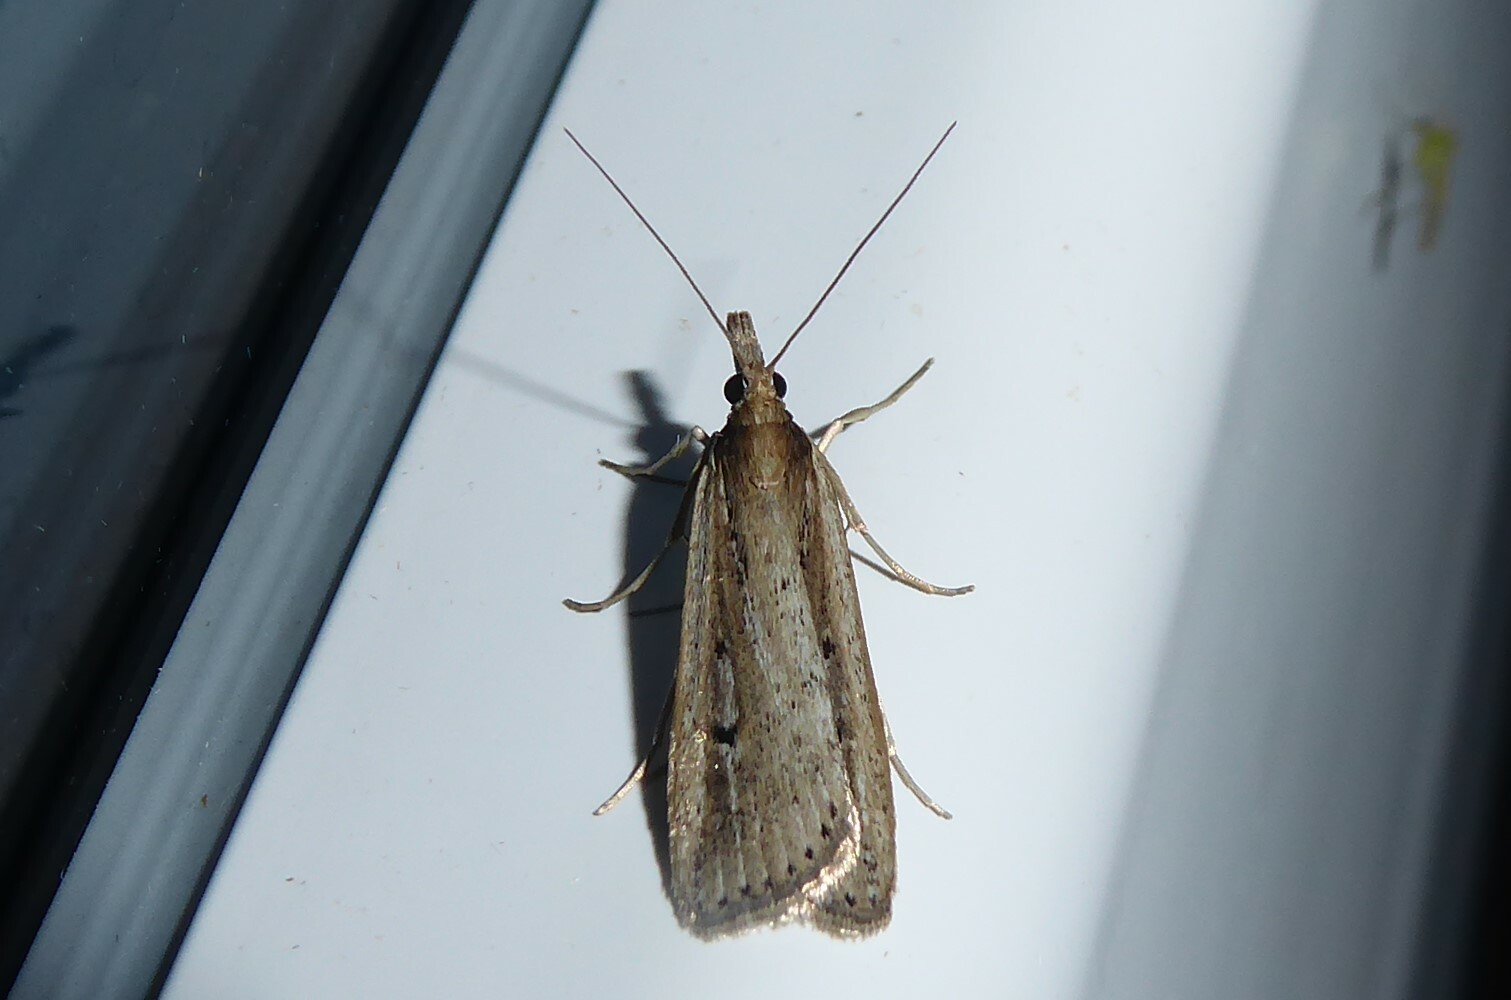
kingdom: Animalia
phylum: Arthropoda
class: Insecta
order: Lepidoptera
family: Crambidae
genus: Eudonia
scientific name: Eudonia sabulosella
